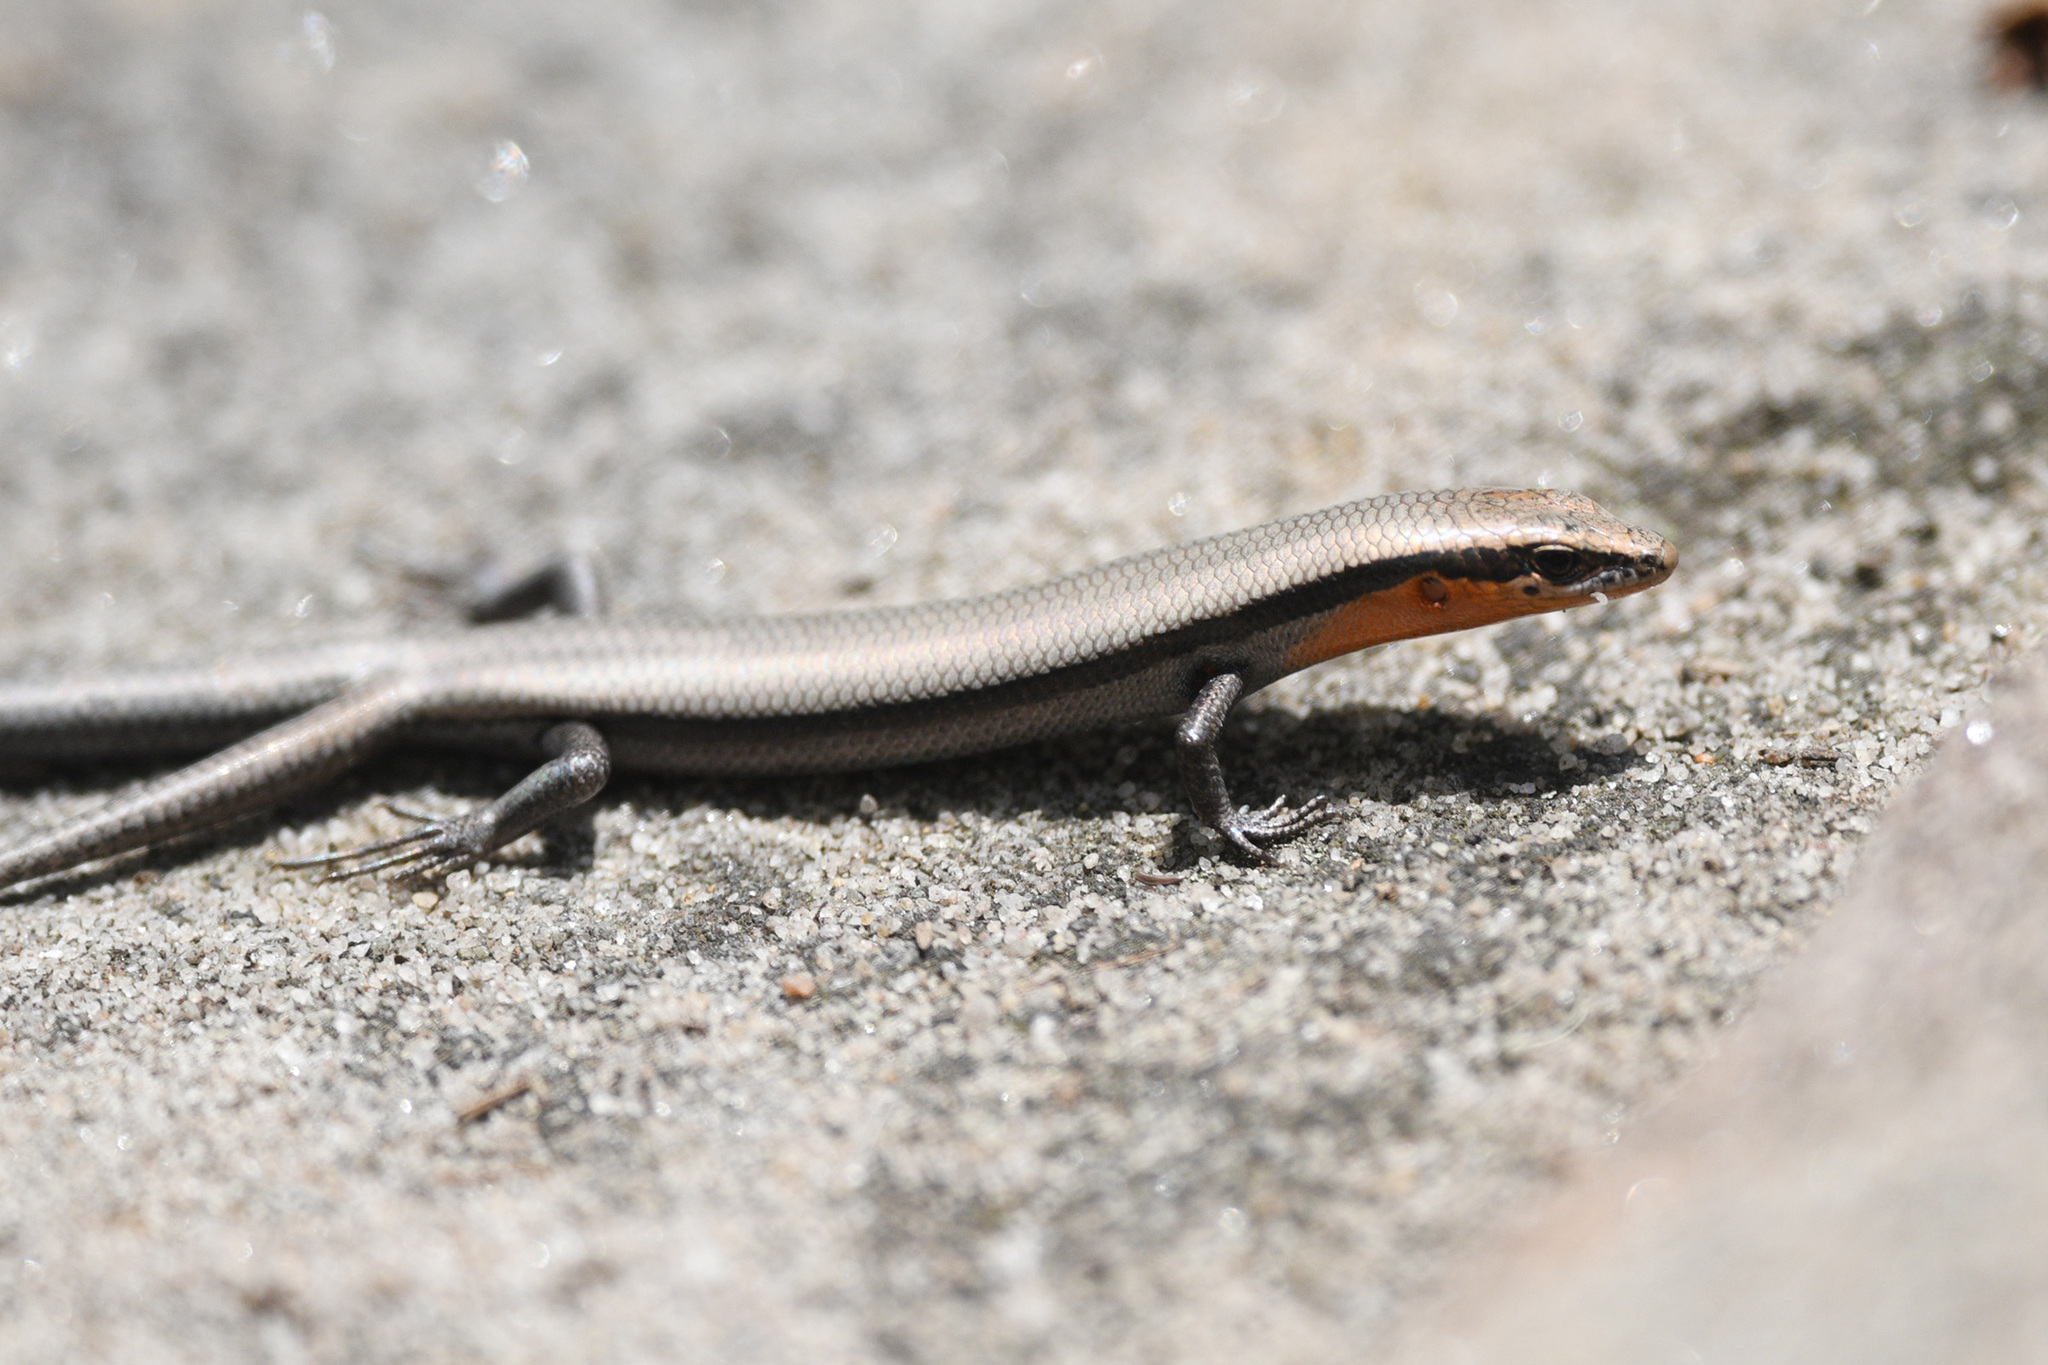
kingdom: Animalia
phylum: Chordata
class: Squamata
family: Scincidae
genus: Acritoscincus
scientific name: Acritoscincus platynotus
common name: Red-throated cool-skink
